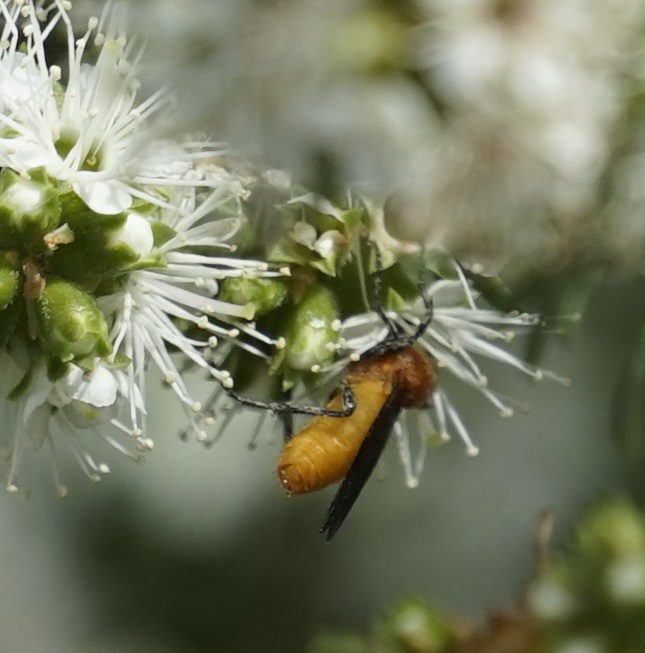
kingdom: Animalia
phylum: Arthropoda
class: Insecta
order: Diptera
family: Bibionidae
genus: Bibio
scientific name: Bibio imitator
